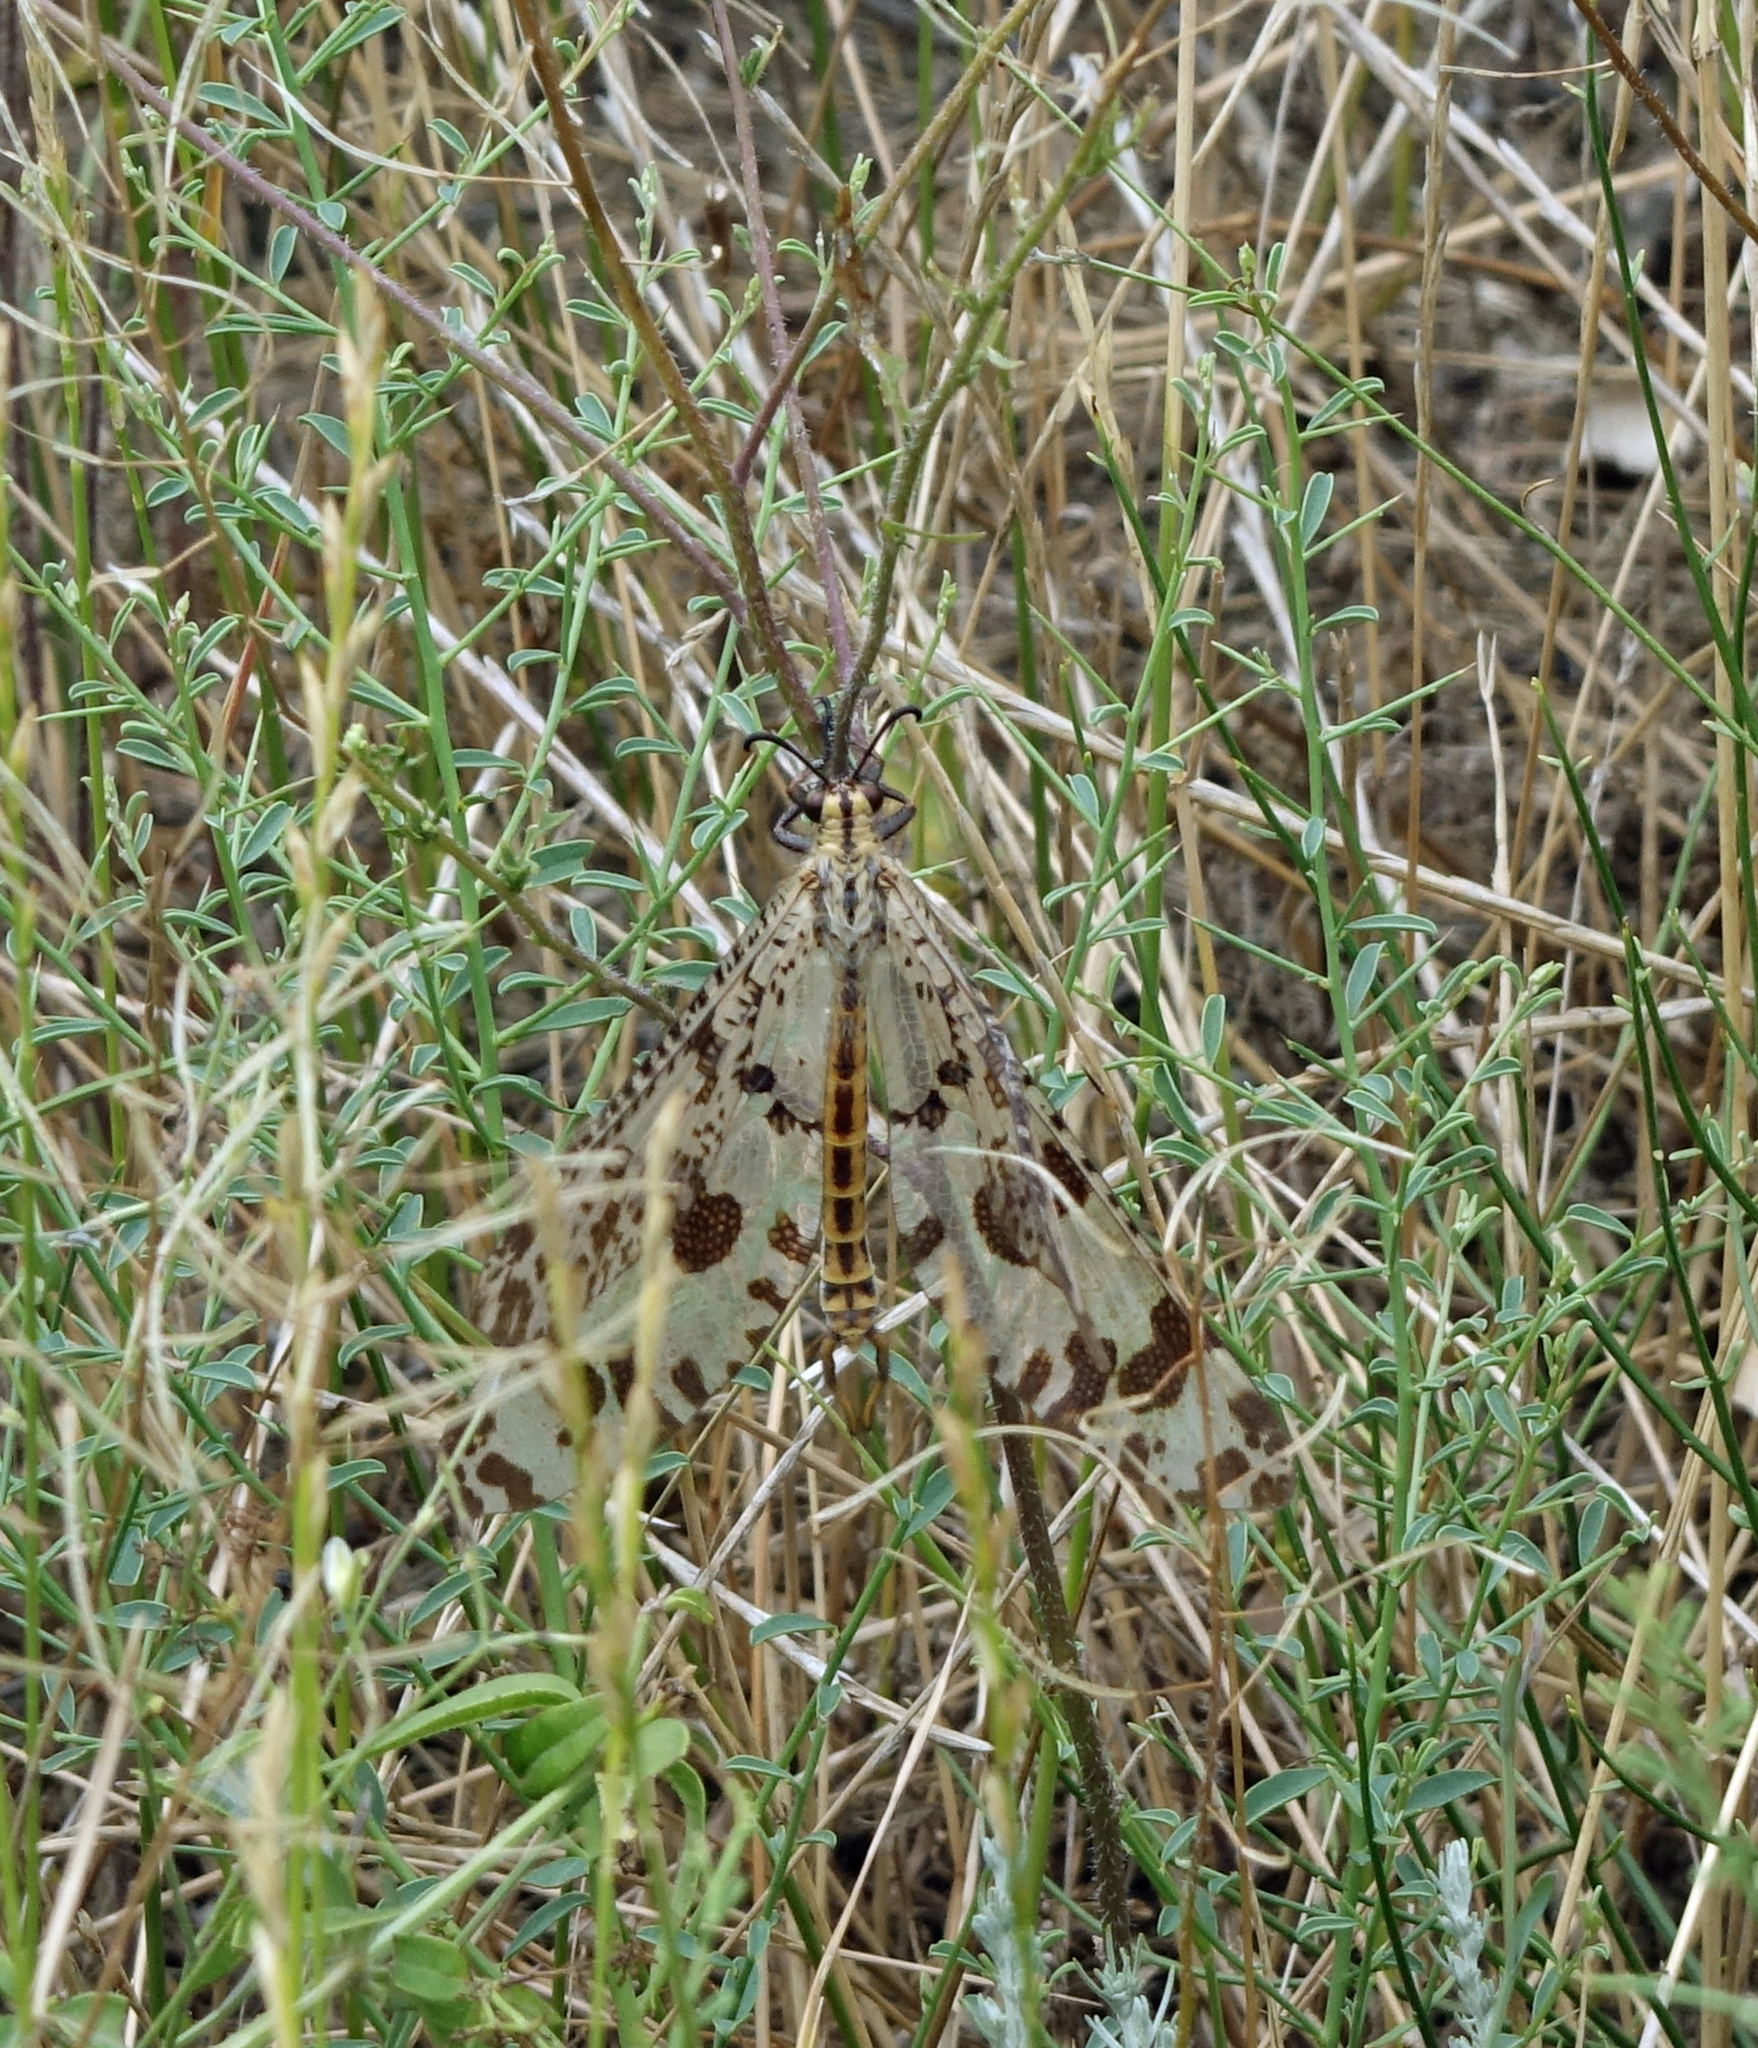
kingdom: Animalia
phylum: Arthropoda
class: Insecta
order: Neuroptera
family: Myrmeleontidae
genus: Palpares
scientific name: Palpares libelluloides
